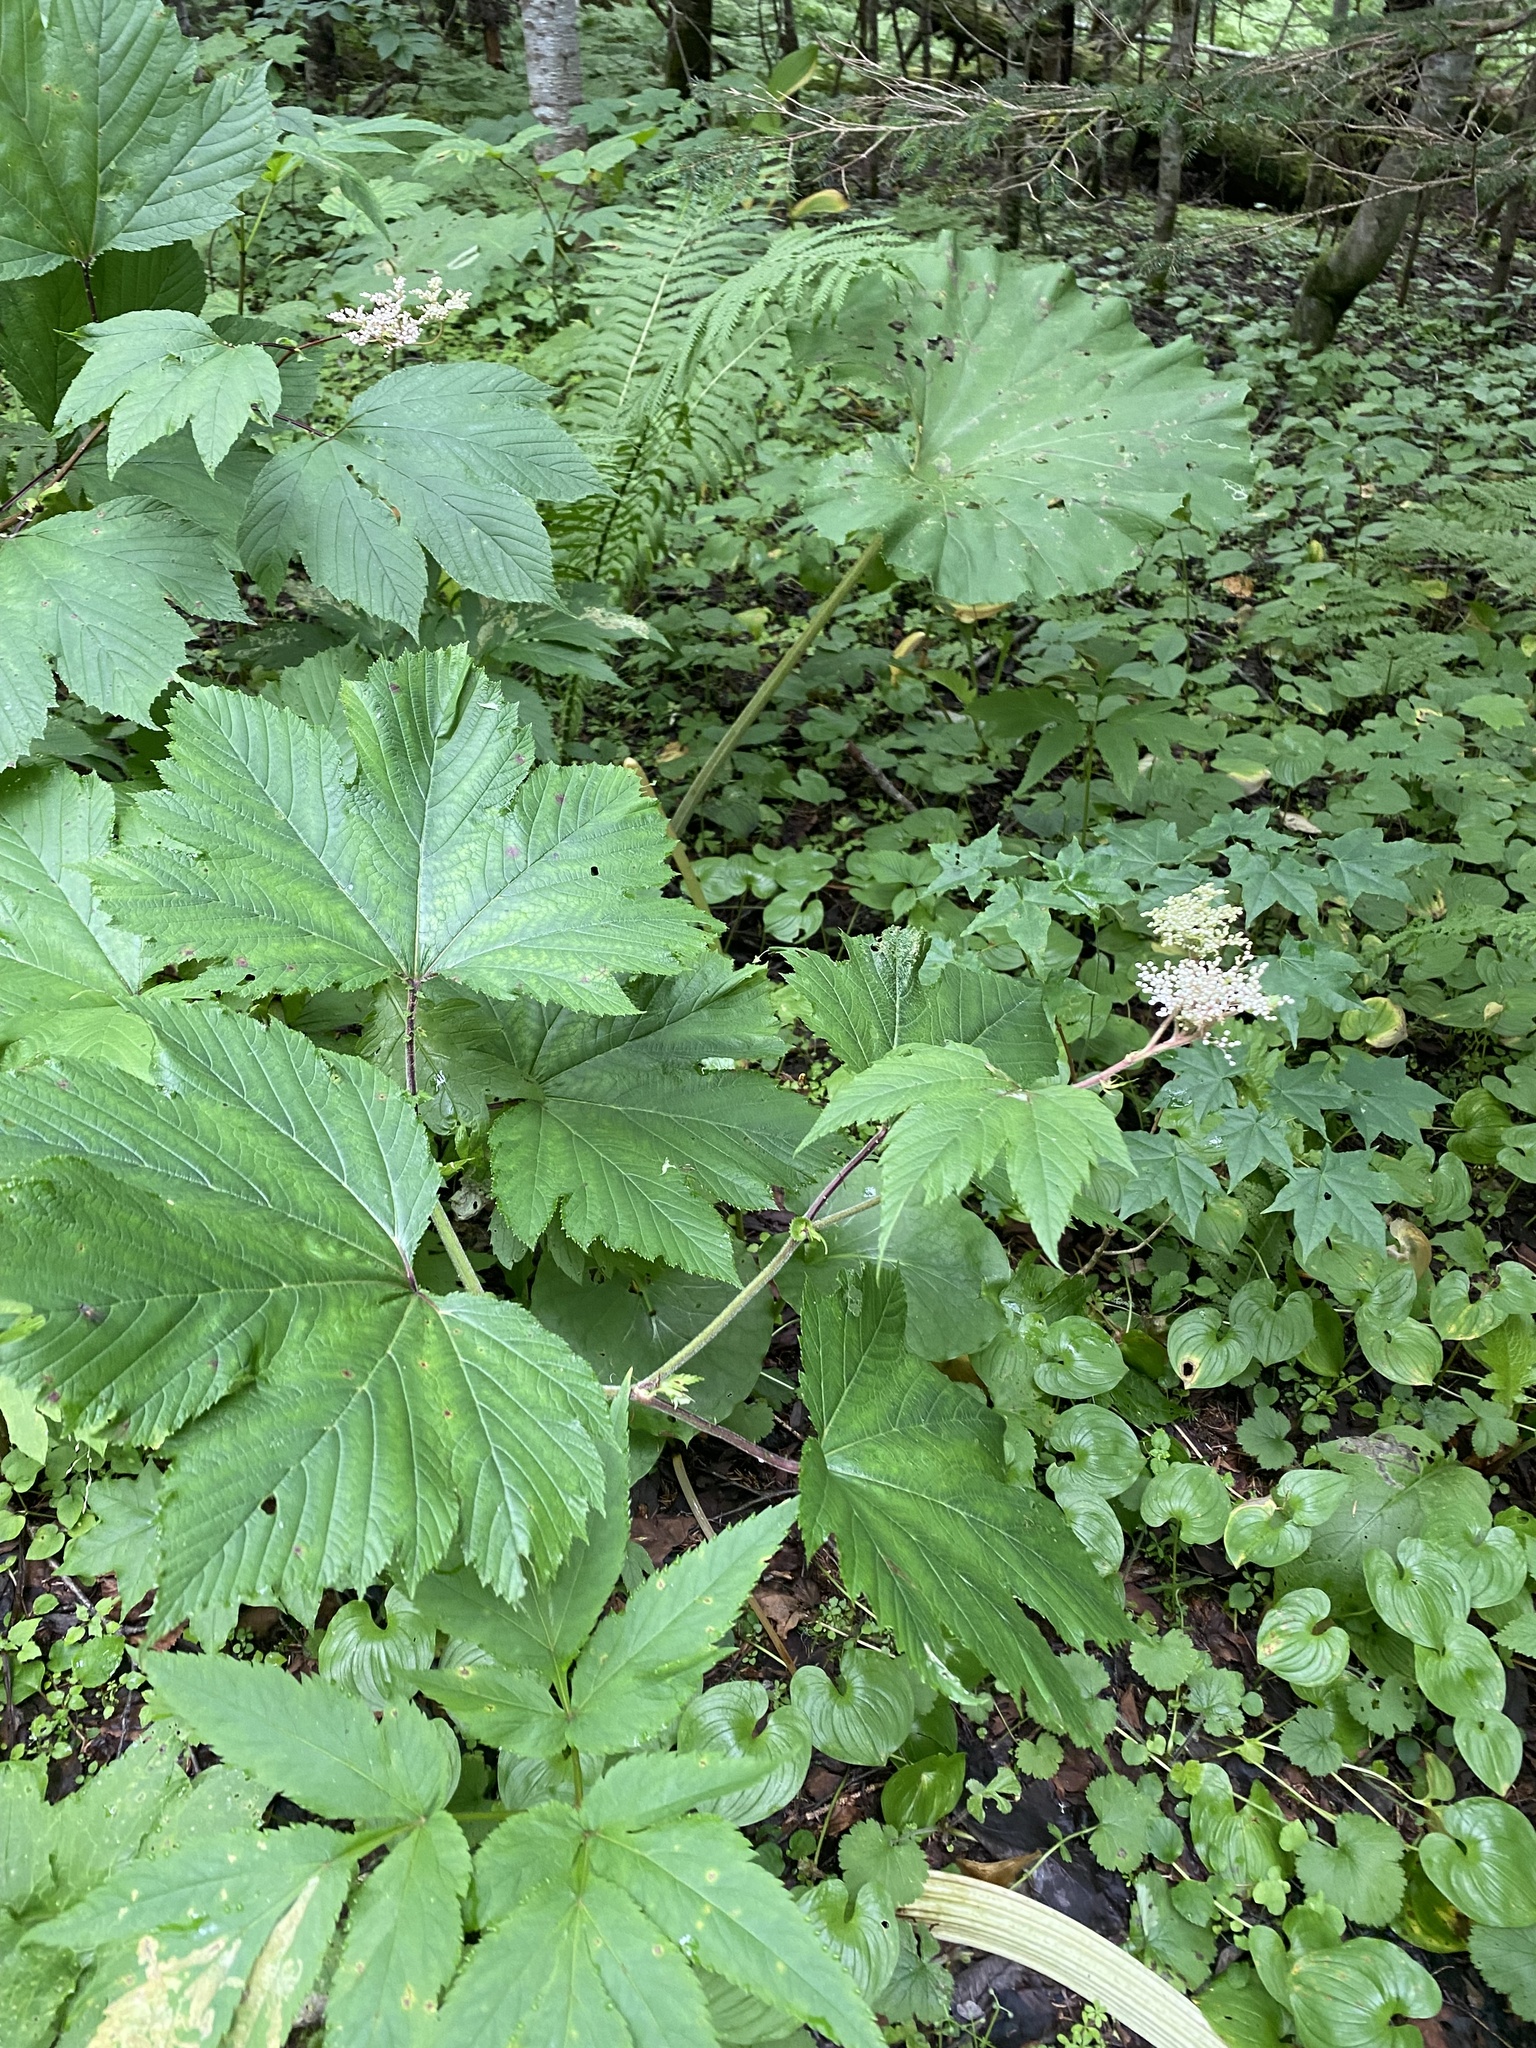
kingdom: Plantae
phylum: Tracheophyta
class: Magnoliopsida
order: Rosales
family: Rosaceae
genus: Filipendula
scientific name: Filipendula camtschatica
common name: Giant meadowsweet
